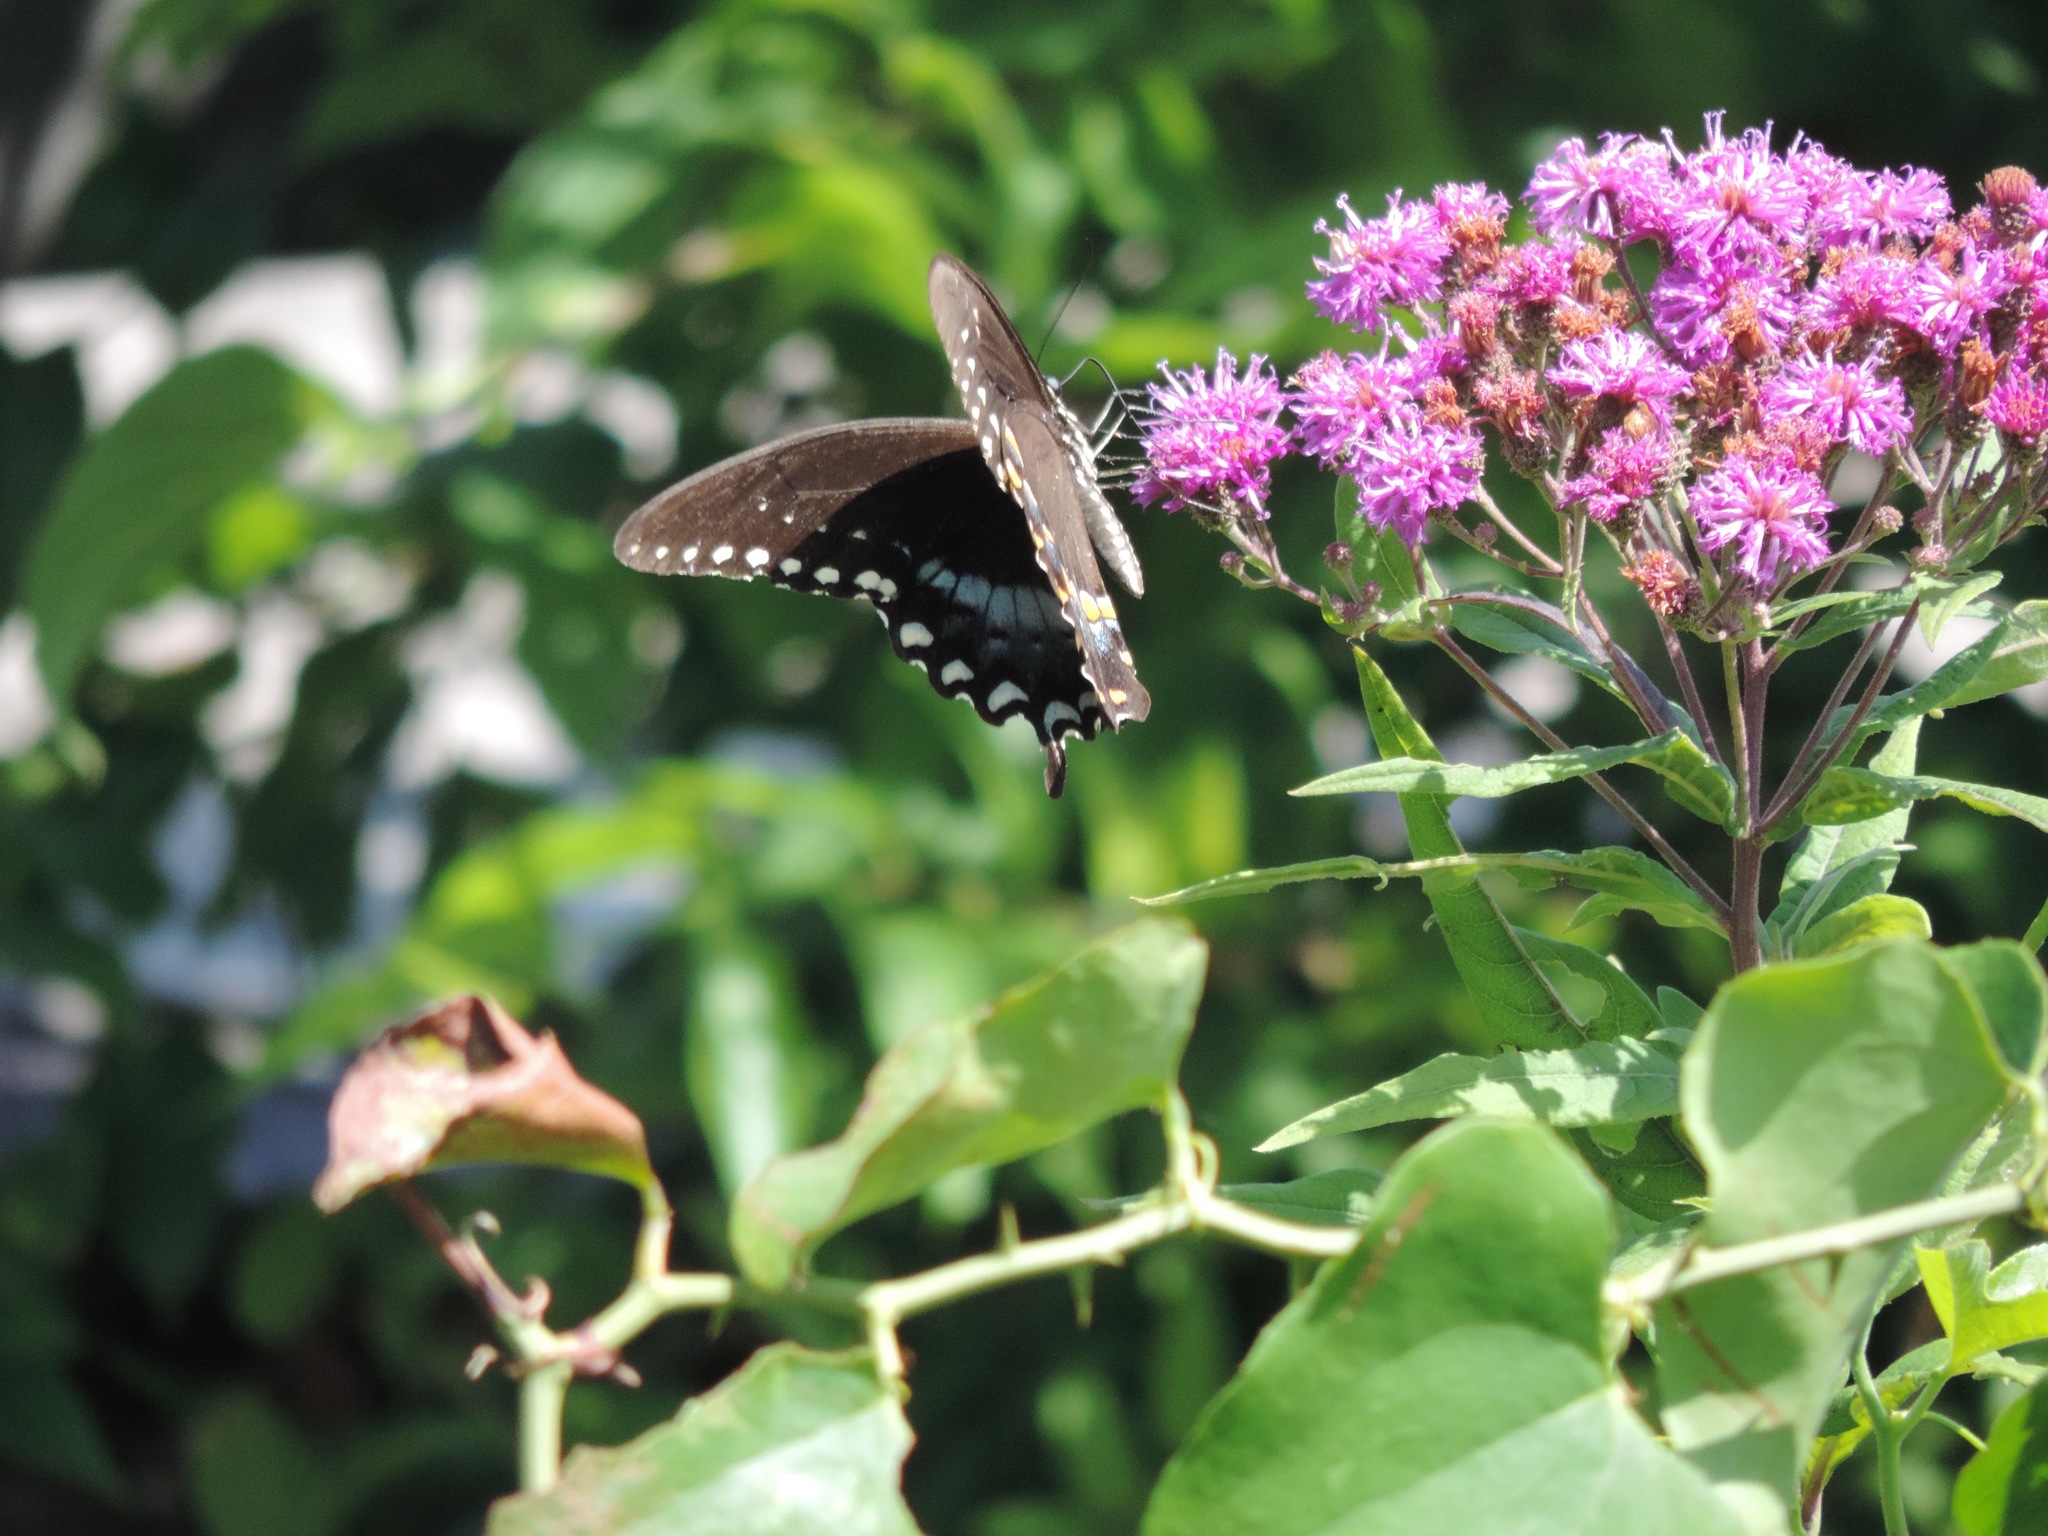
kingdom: Animalia
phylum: Arthropoda
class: Insecta
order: Lepidoptera
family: Papilionidae
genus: Papilio
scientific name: Papilio troilus
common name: Spicebush swallowtail
